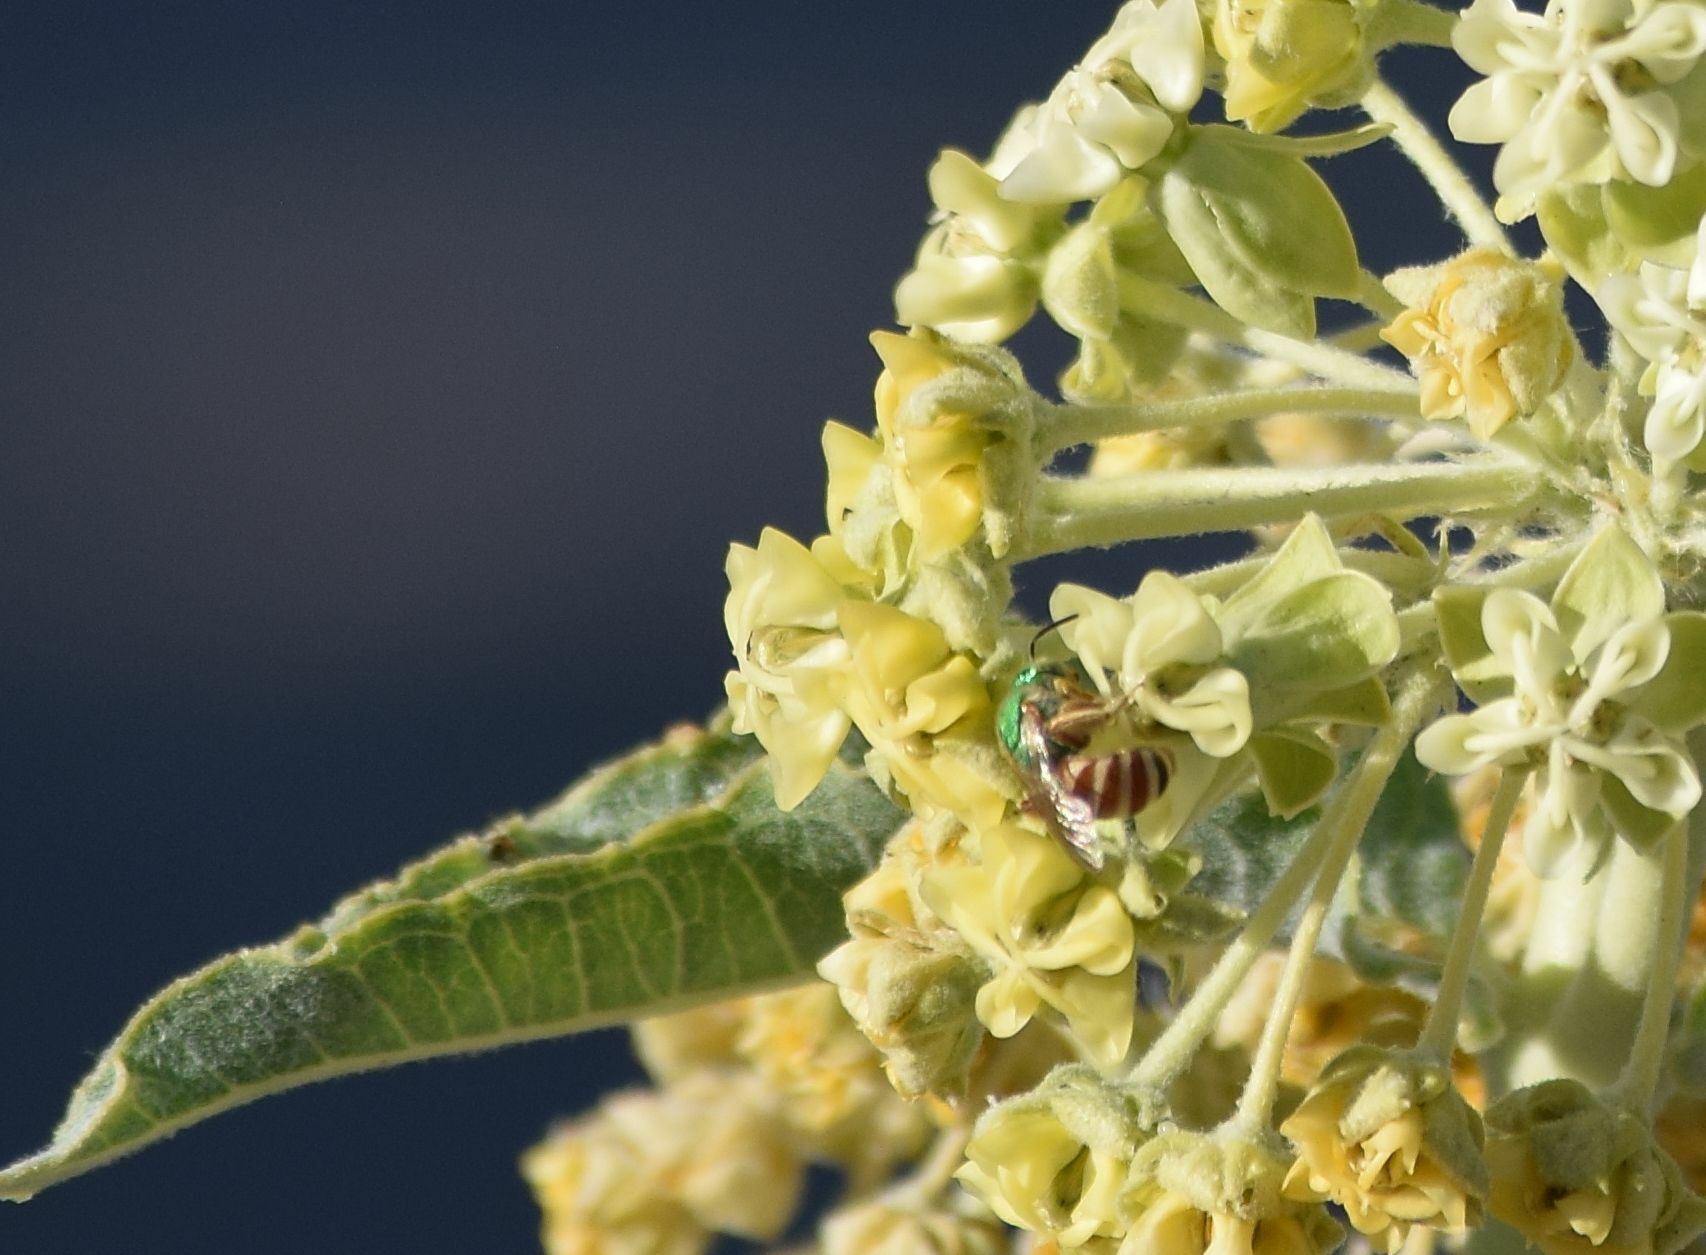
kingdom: Animalia
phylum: Arthropoda
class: Insecta
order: Hymenoptera
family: Halictidae
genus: Agapostemon
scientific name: Agapostemon melliventris
